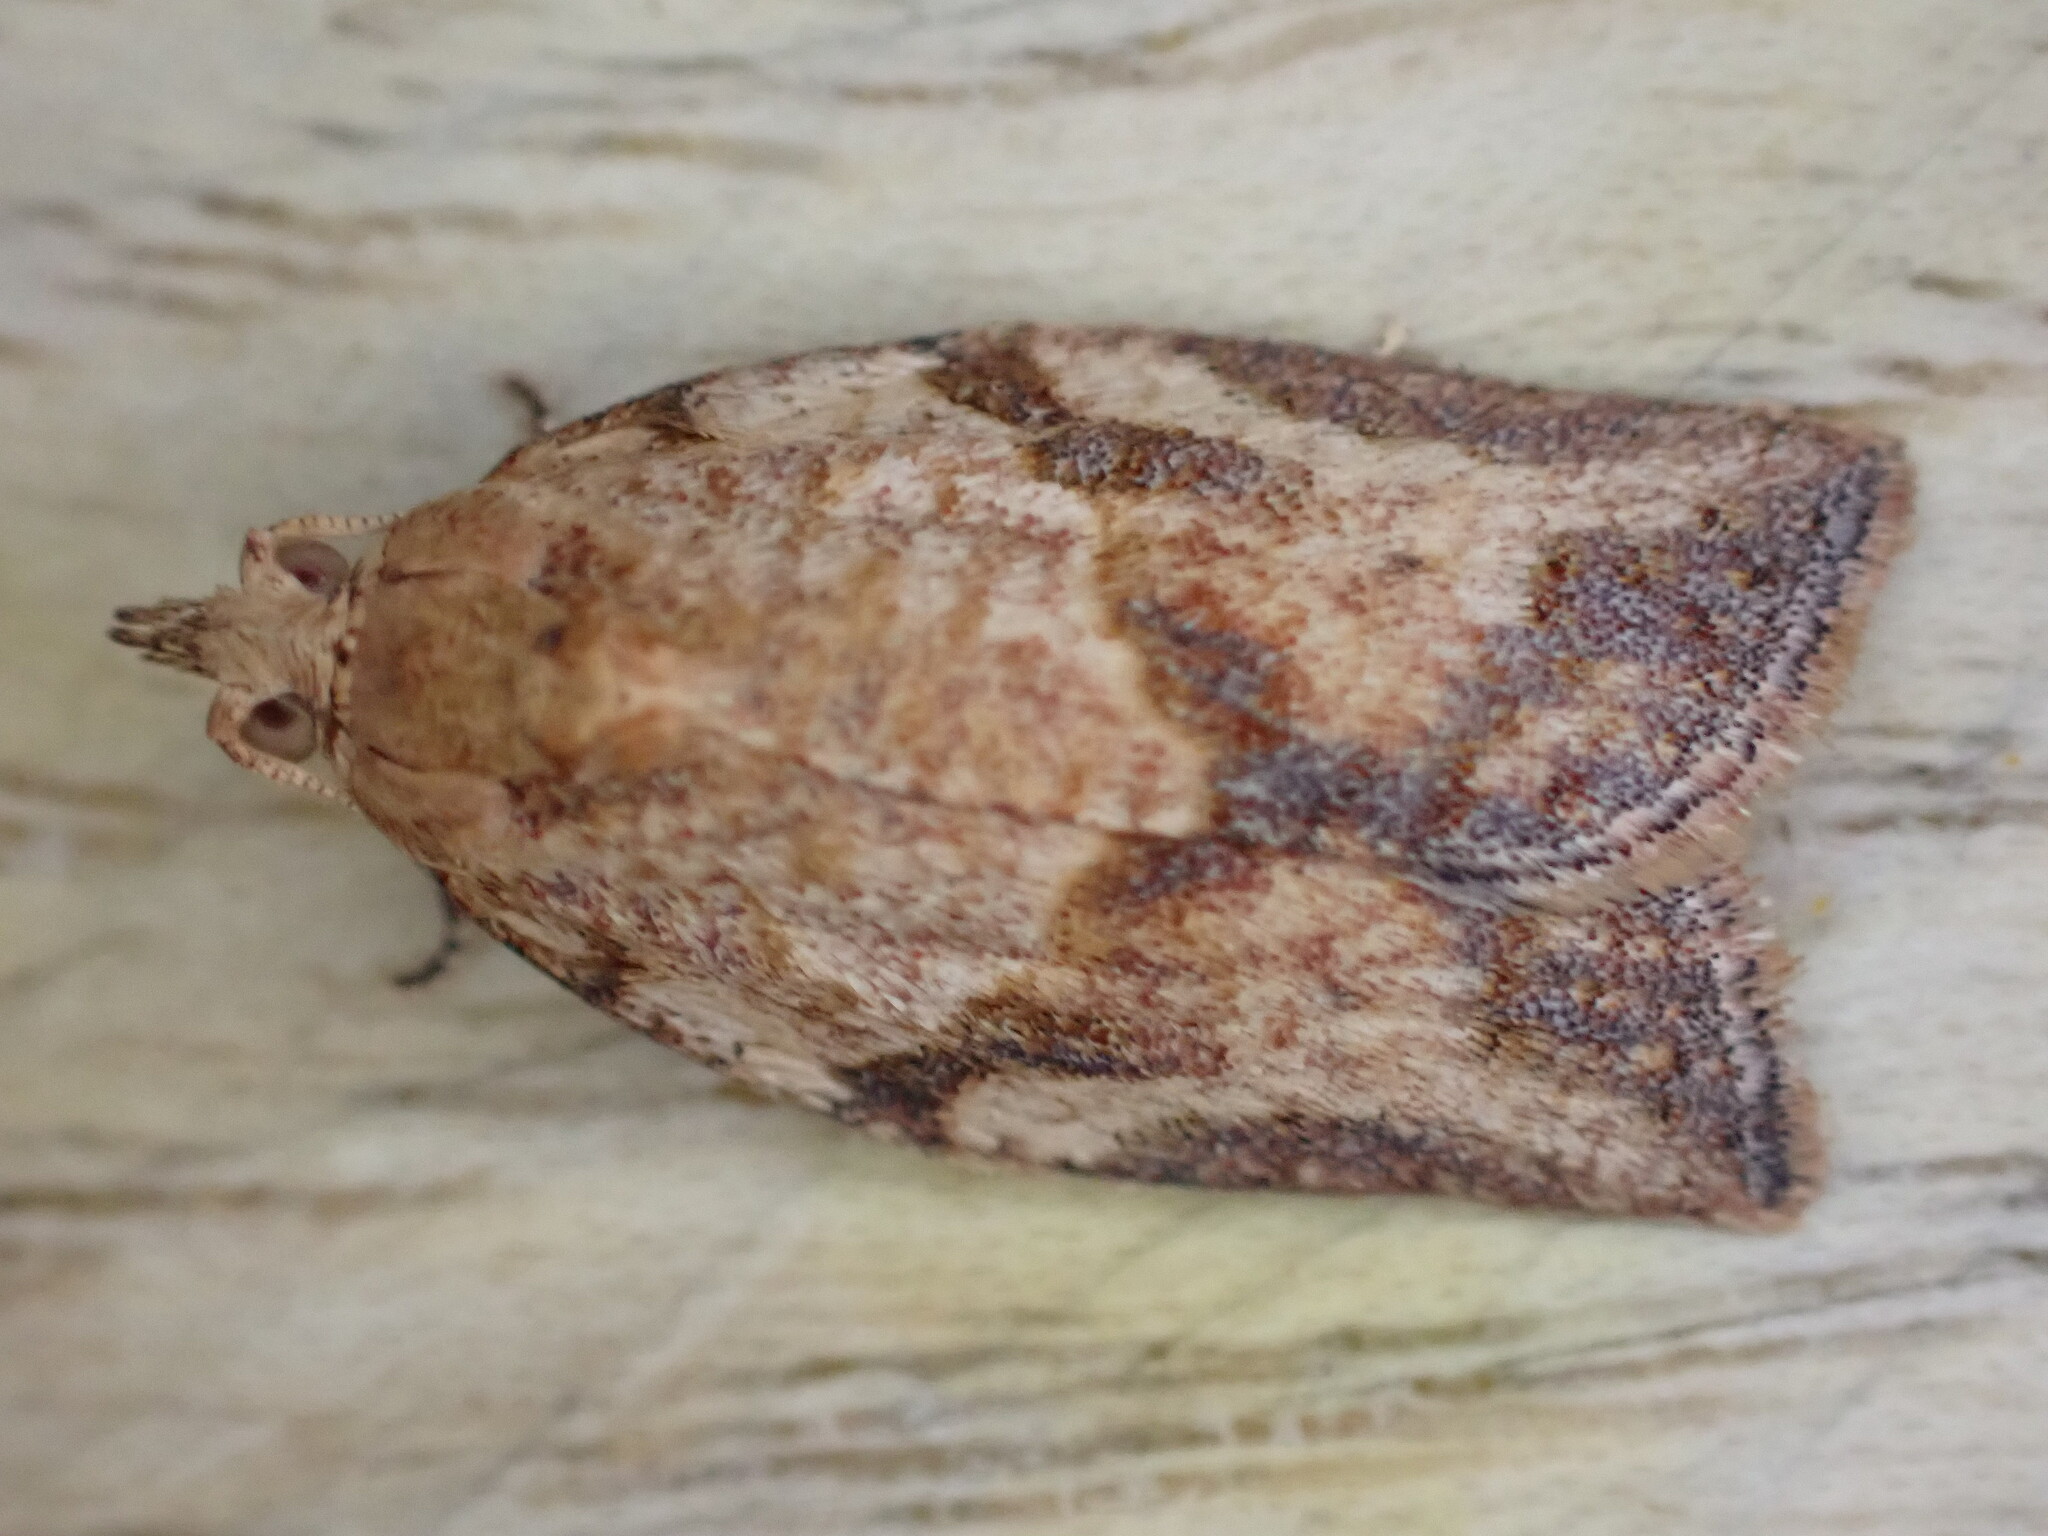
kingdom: Animalia
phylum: Arthropoda
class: Insecta
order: Lepidoptera
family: Tortricidae
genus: Epiphyas
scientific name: Epiphyas postvittana
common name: Light brown apple moth
